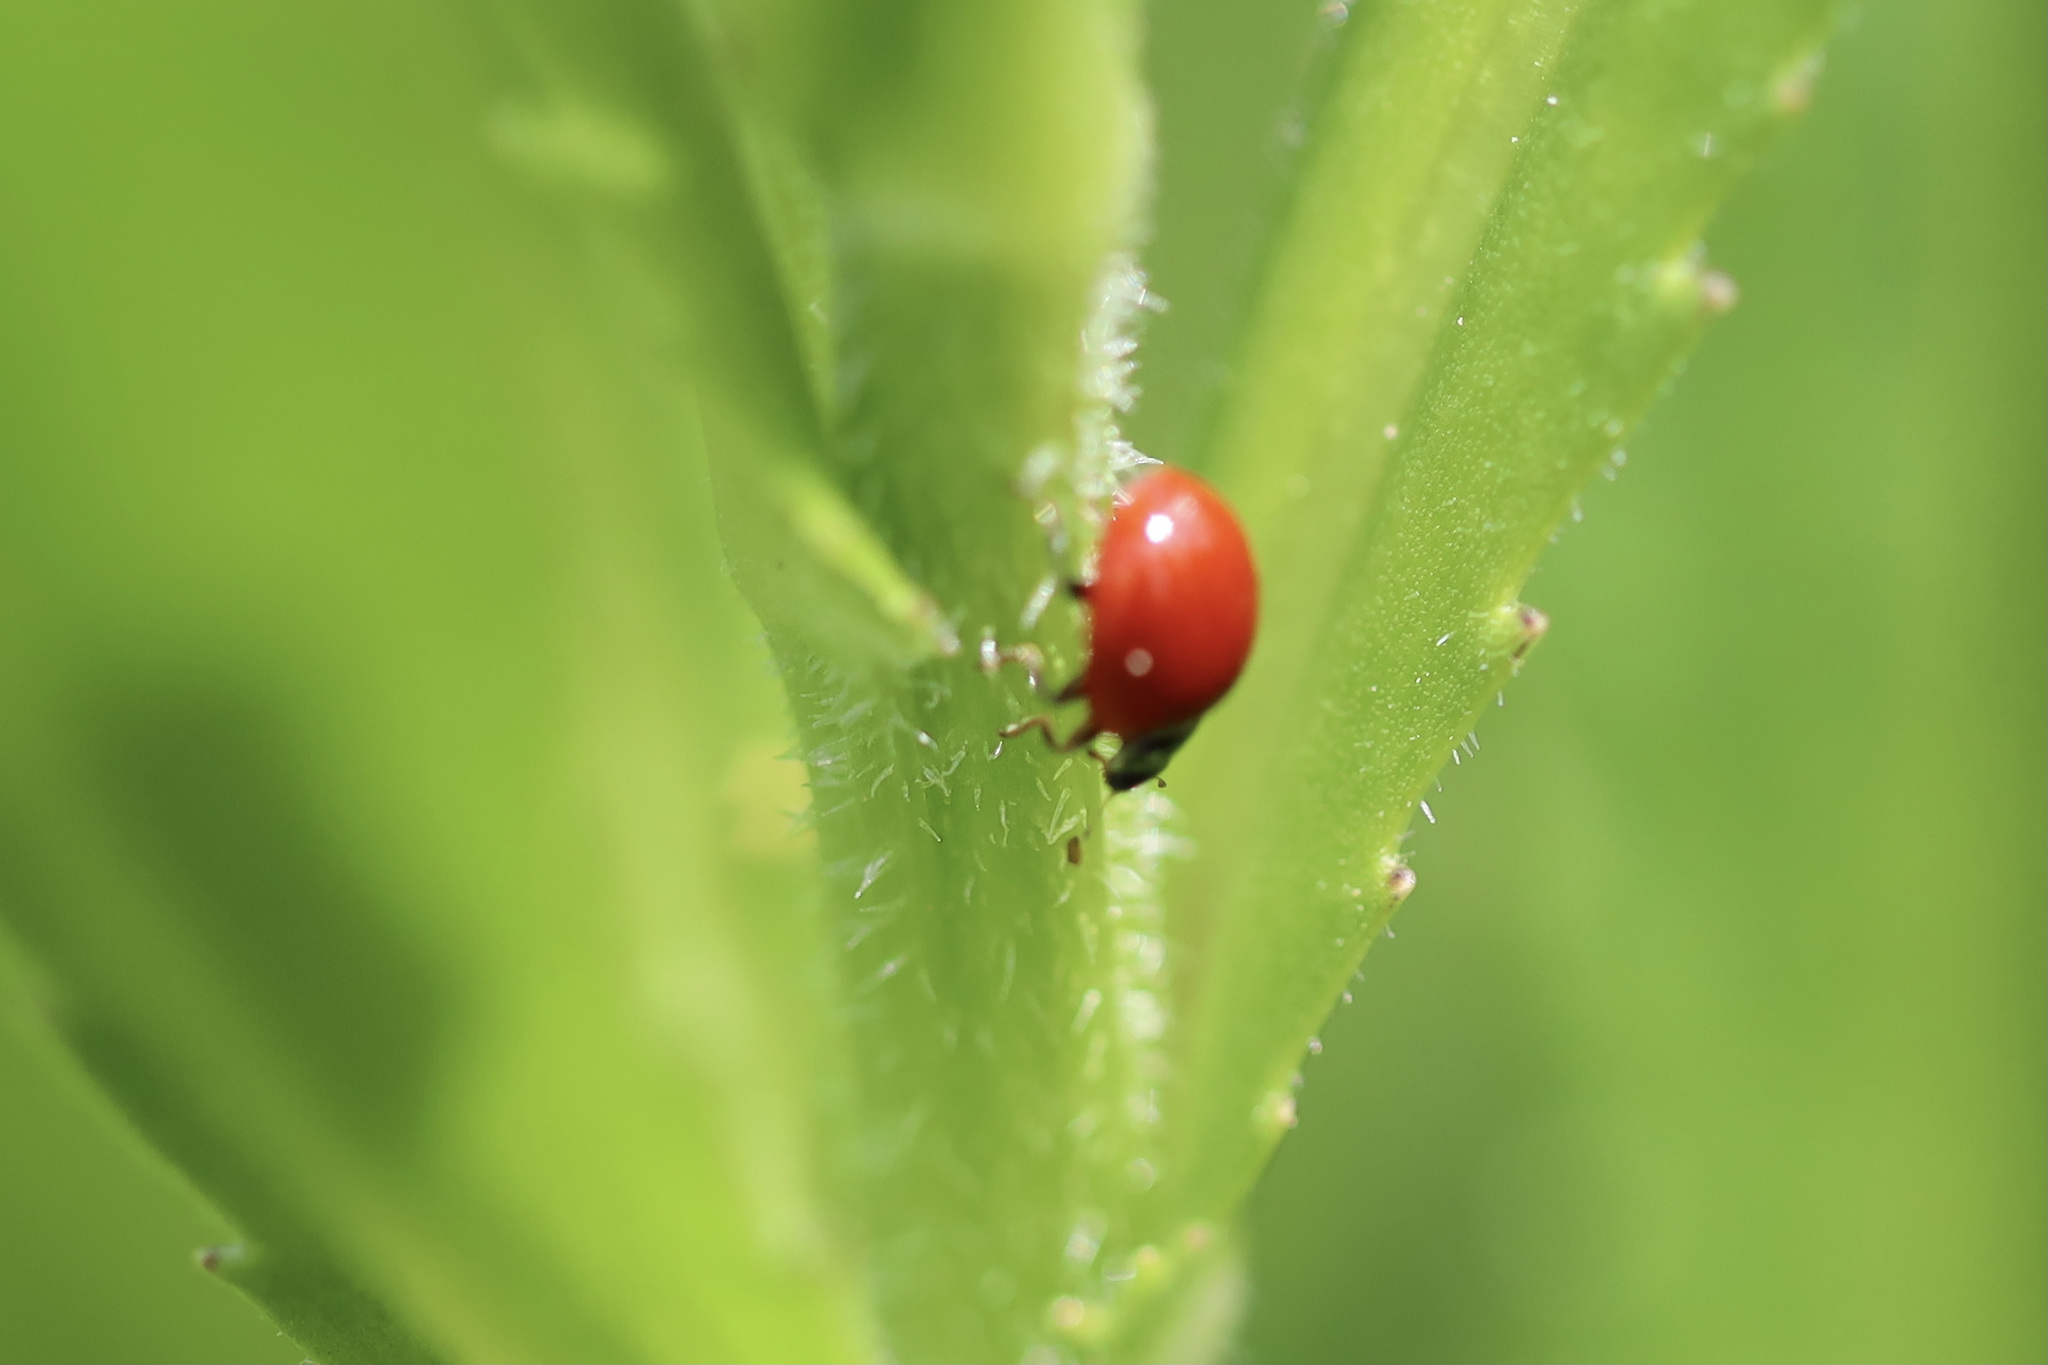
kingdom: Animalia
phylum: Arthropoda
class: Insecta
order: Coleoptera
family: Coccinellidae
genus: Cycloneda
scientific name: Cycloneda polita
